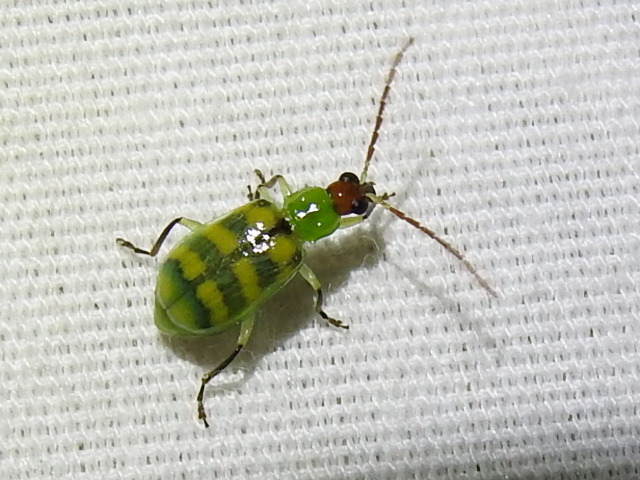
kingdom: Animalia
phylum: Arthropoda
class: Insecta
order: Coleoptera
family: Chrysomelidae
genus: Diabrotica
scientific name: Diabrotica balteata
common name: Leaf beetle
